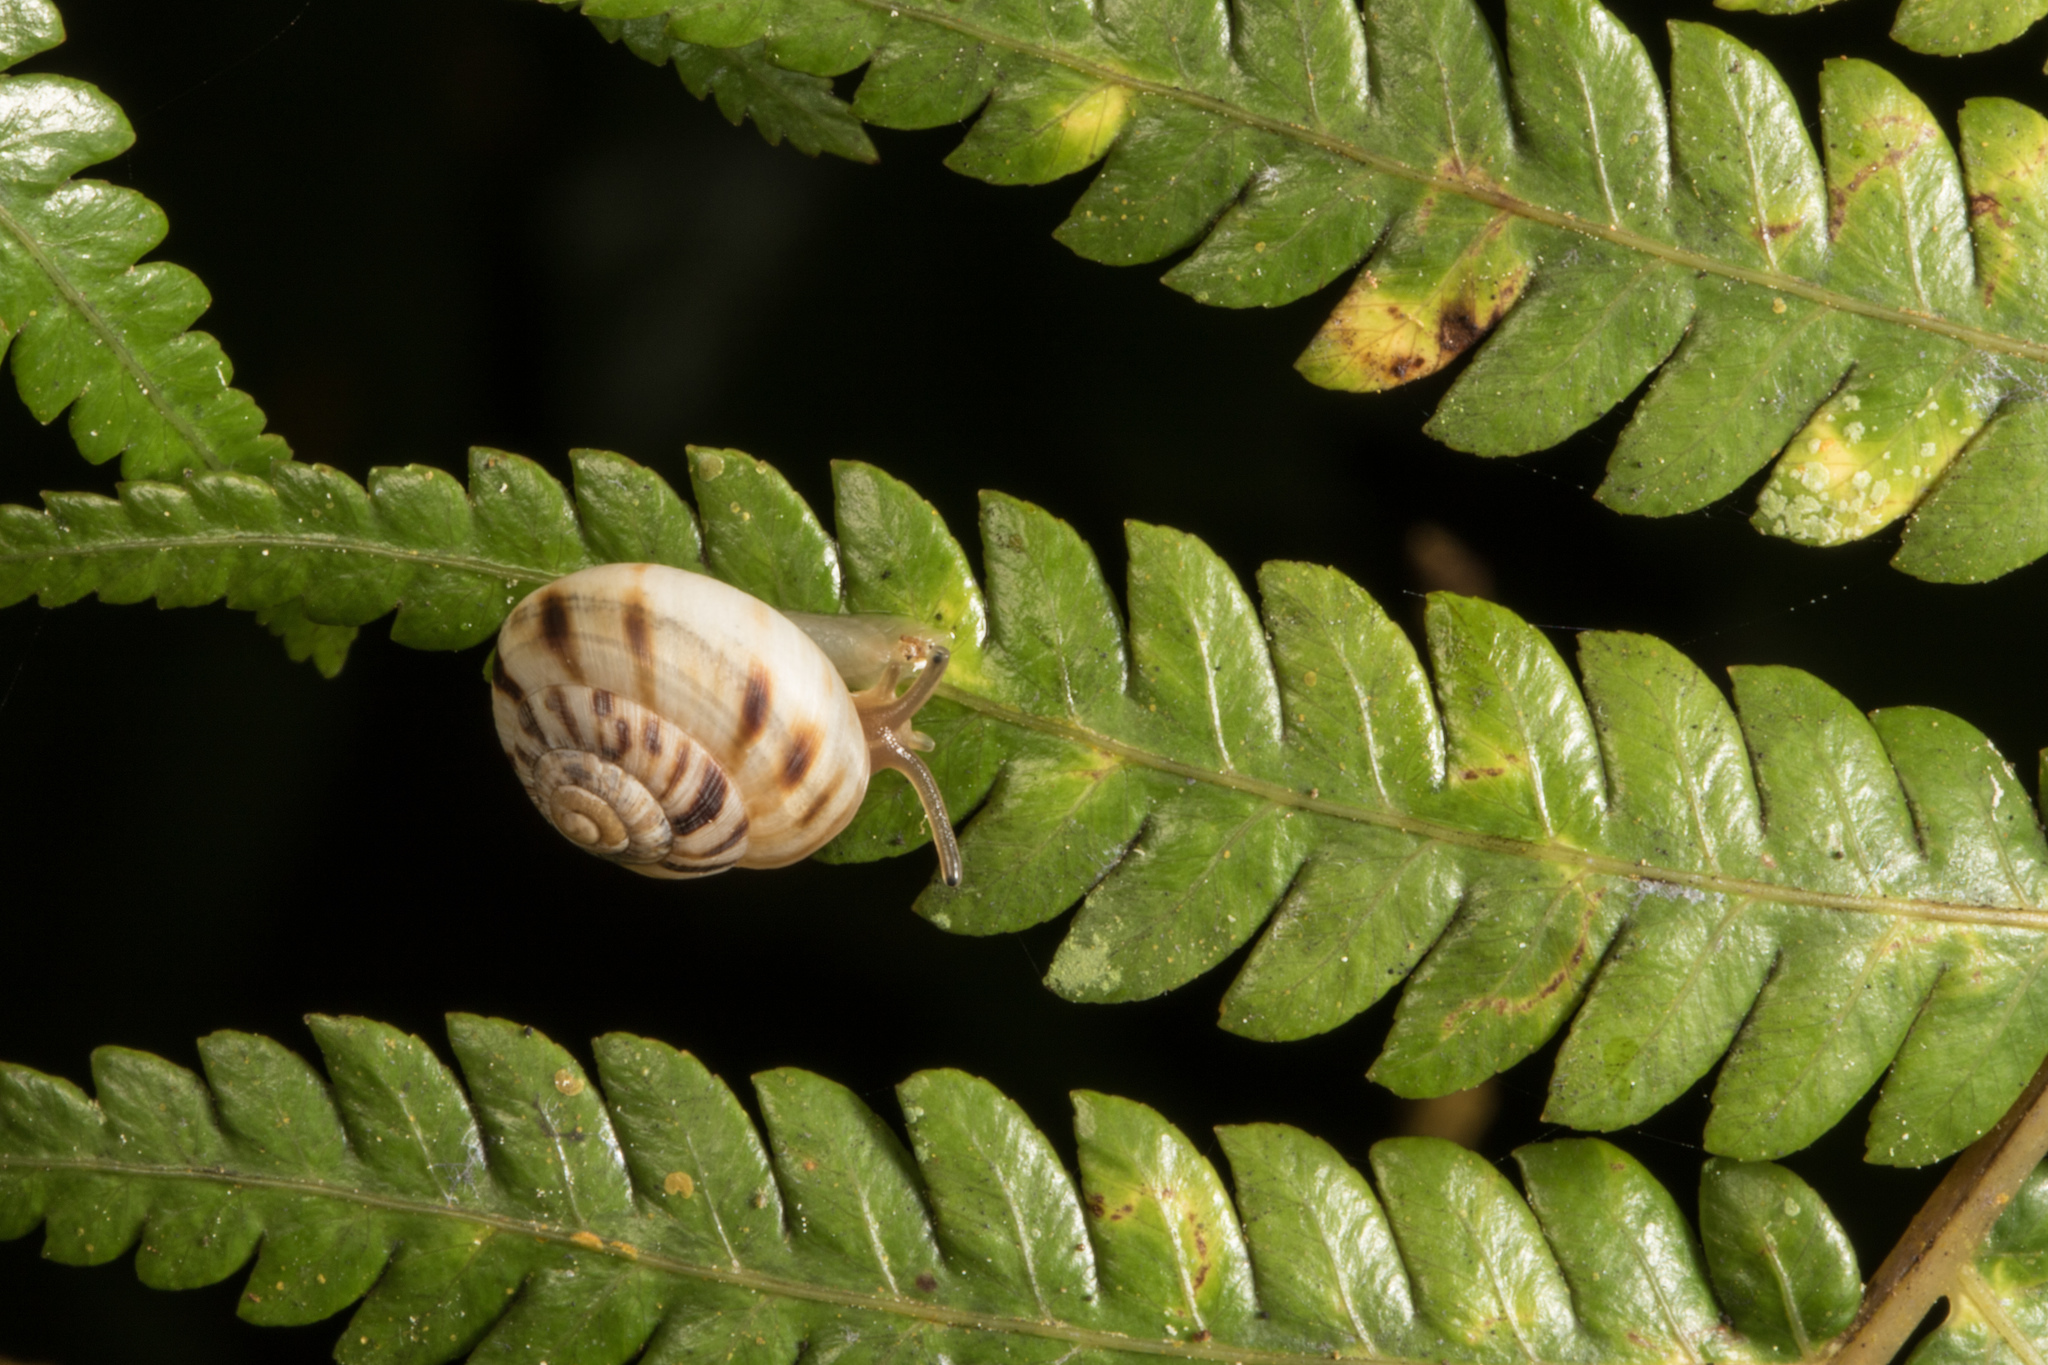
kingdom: Animalia
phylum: Mollusca
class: Gastropoda
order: Stylommatophora
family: Charopidae
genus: Serpho
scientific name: Serpho
